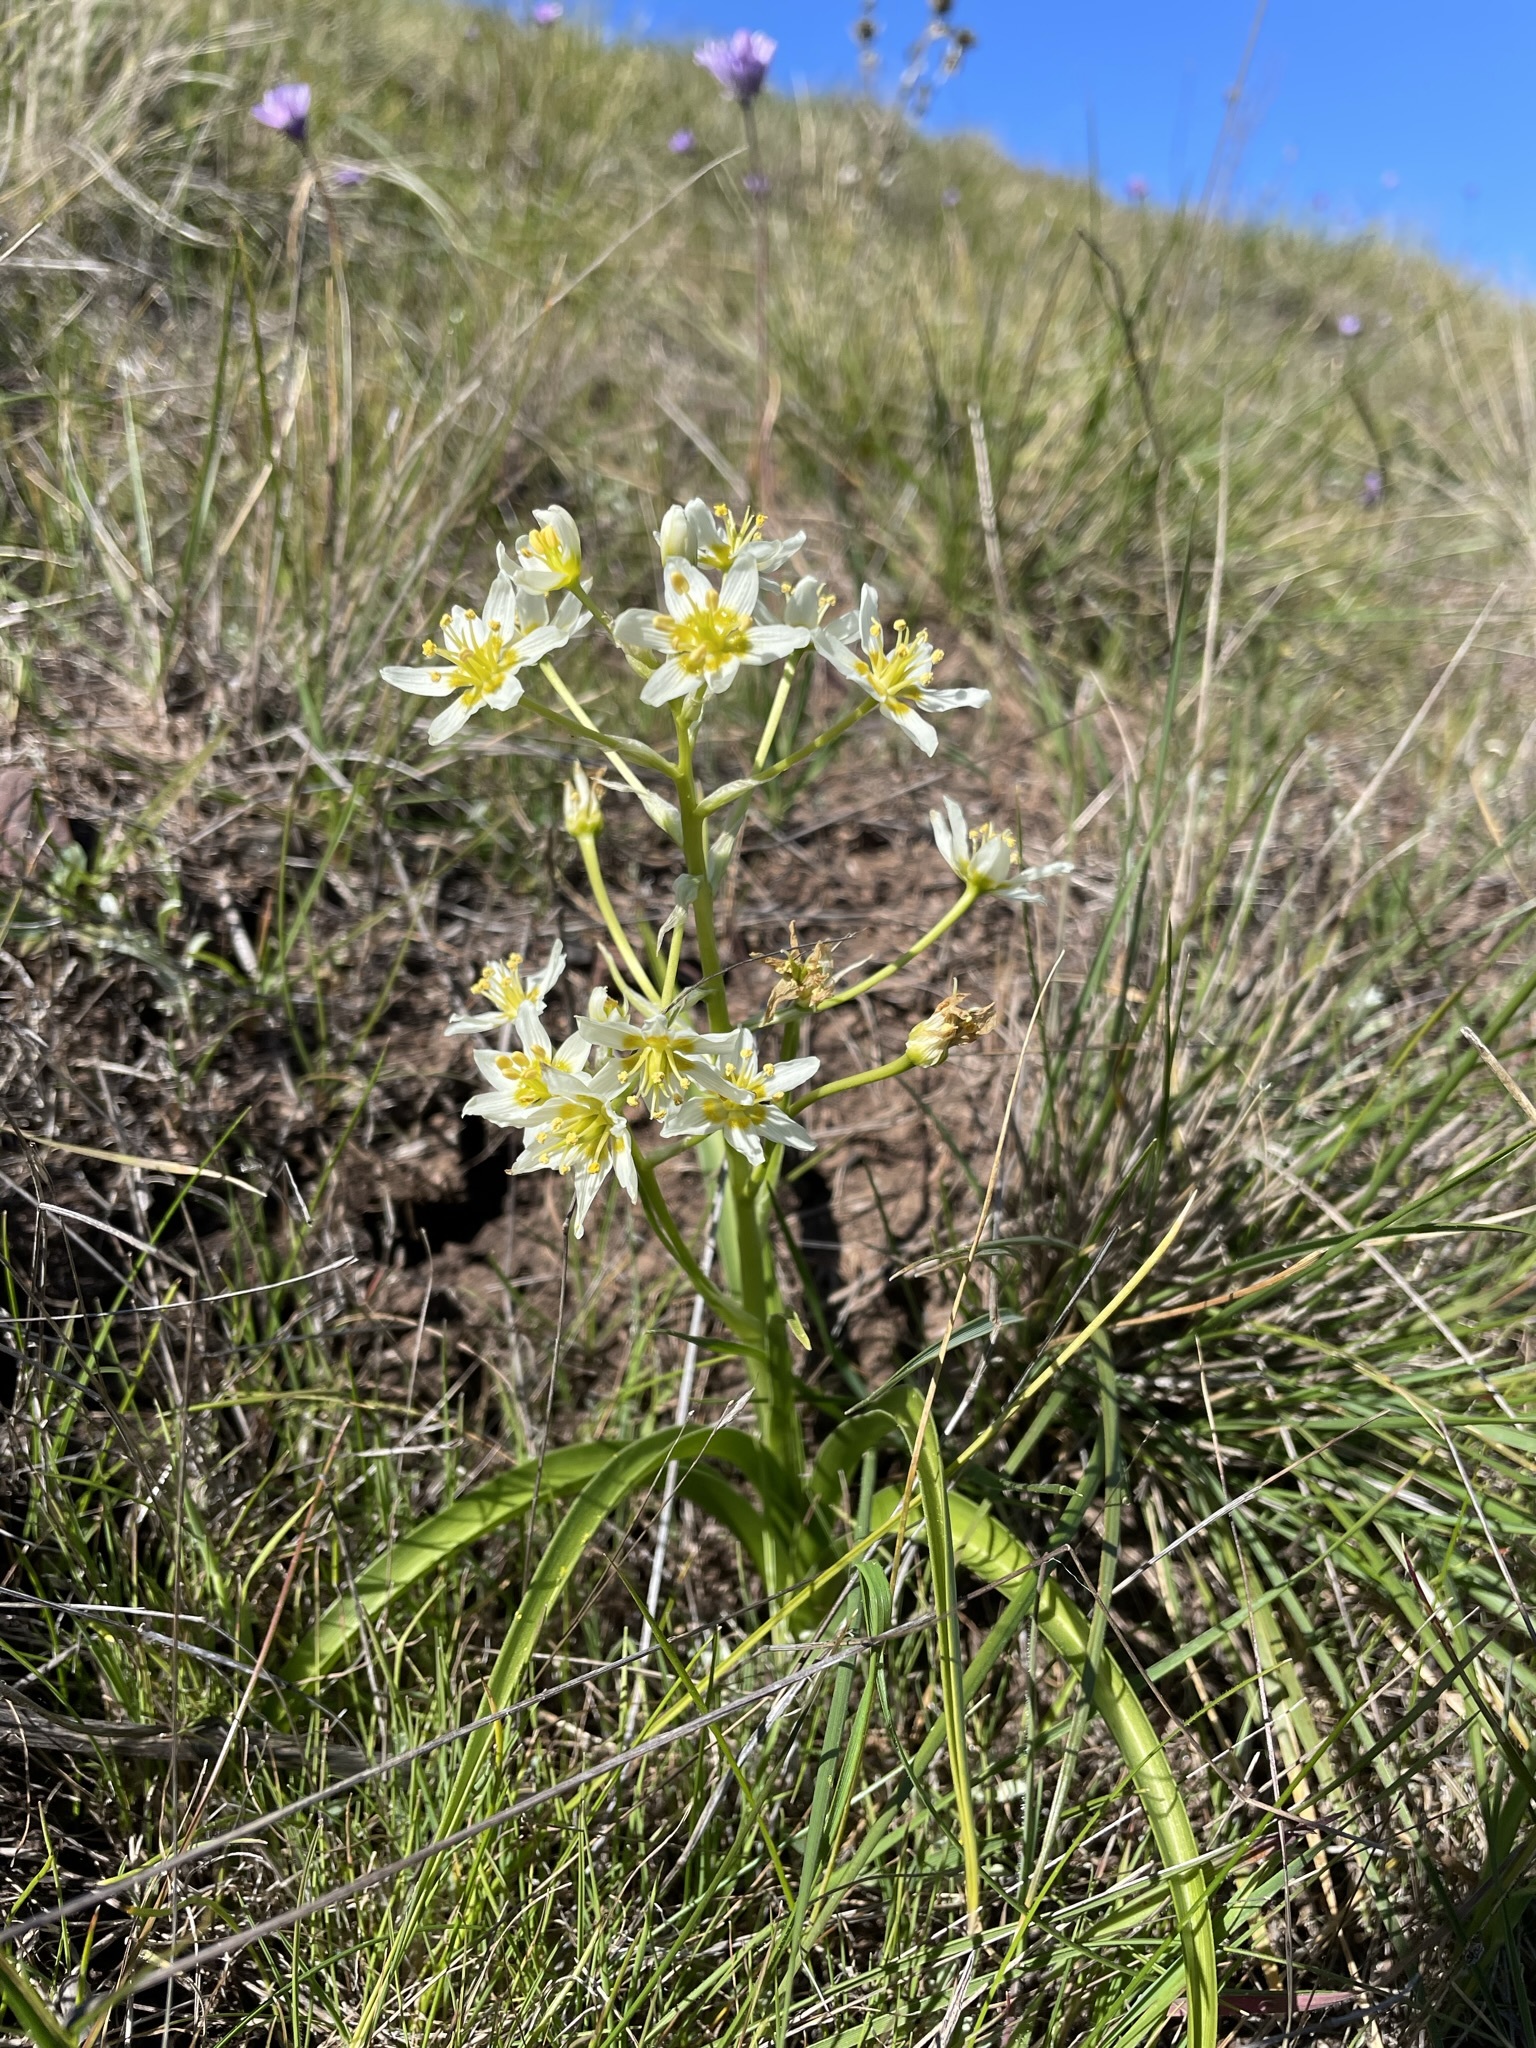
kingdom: Plantae
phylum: Tracheophyta
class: Liliopsida
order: Liliales
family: Melanthiaceae
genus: Toxicoscordion
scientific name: Toxicoscordion fremontii
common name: Fremont's death camas
